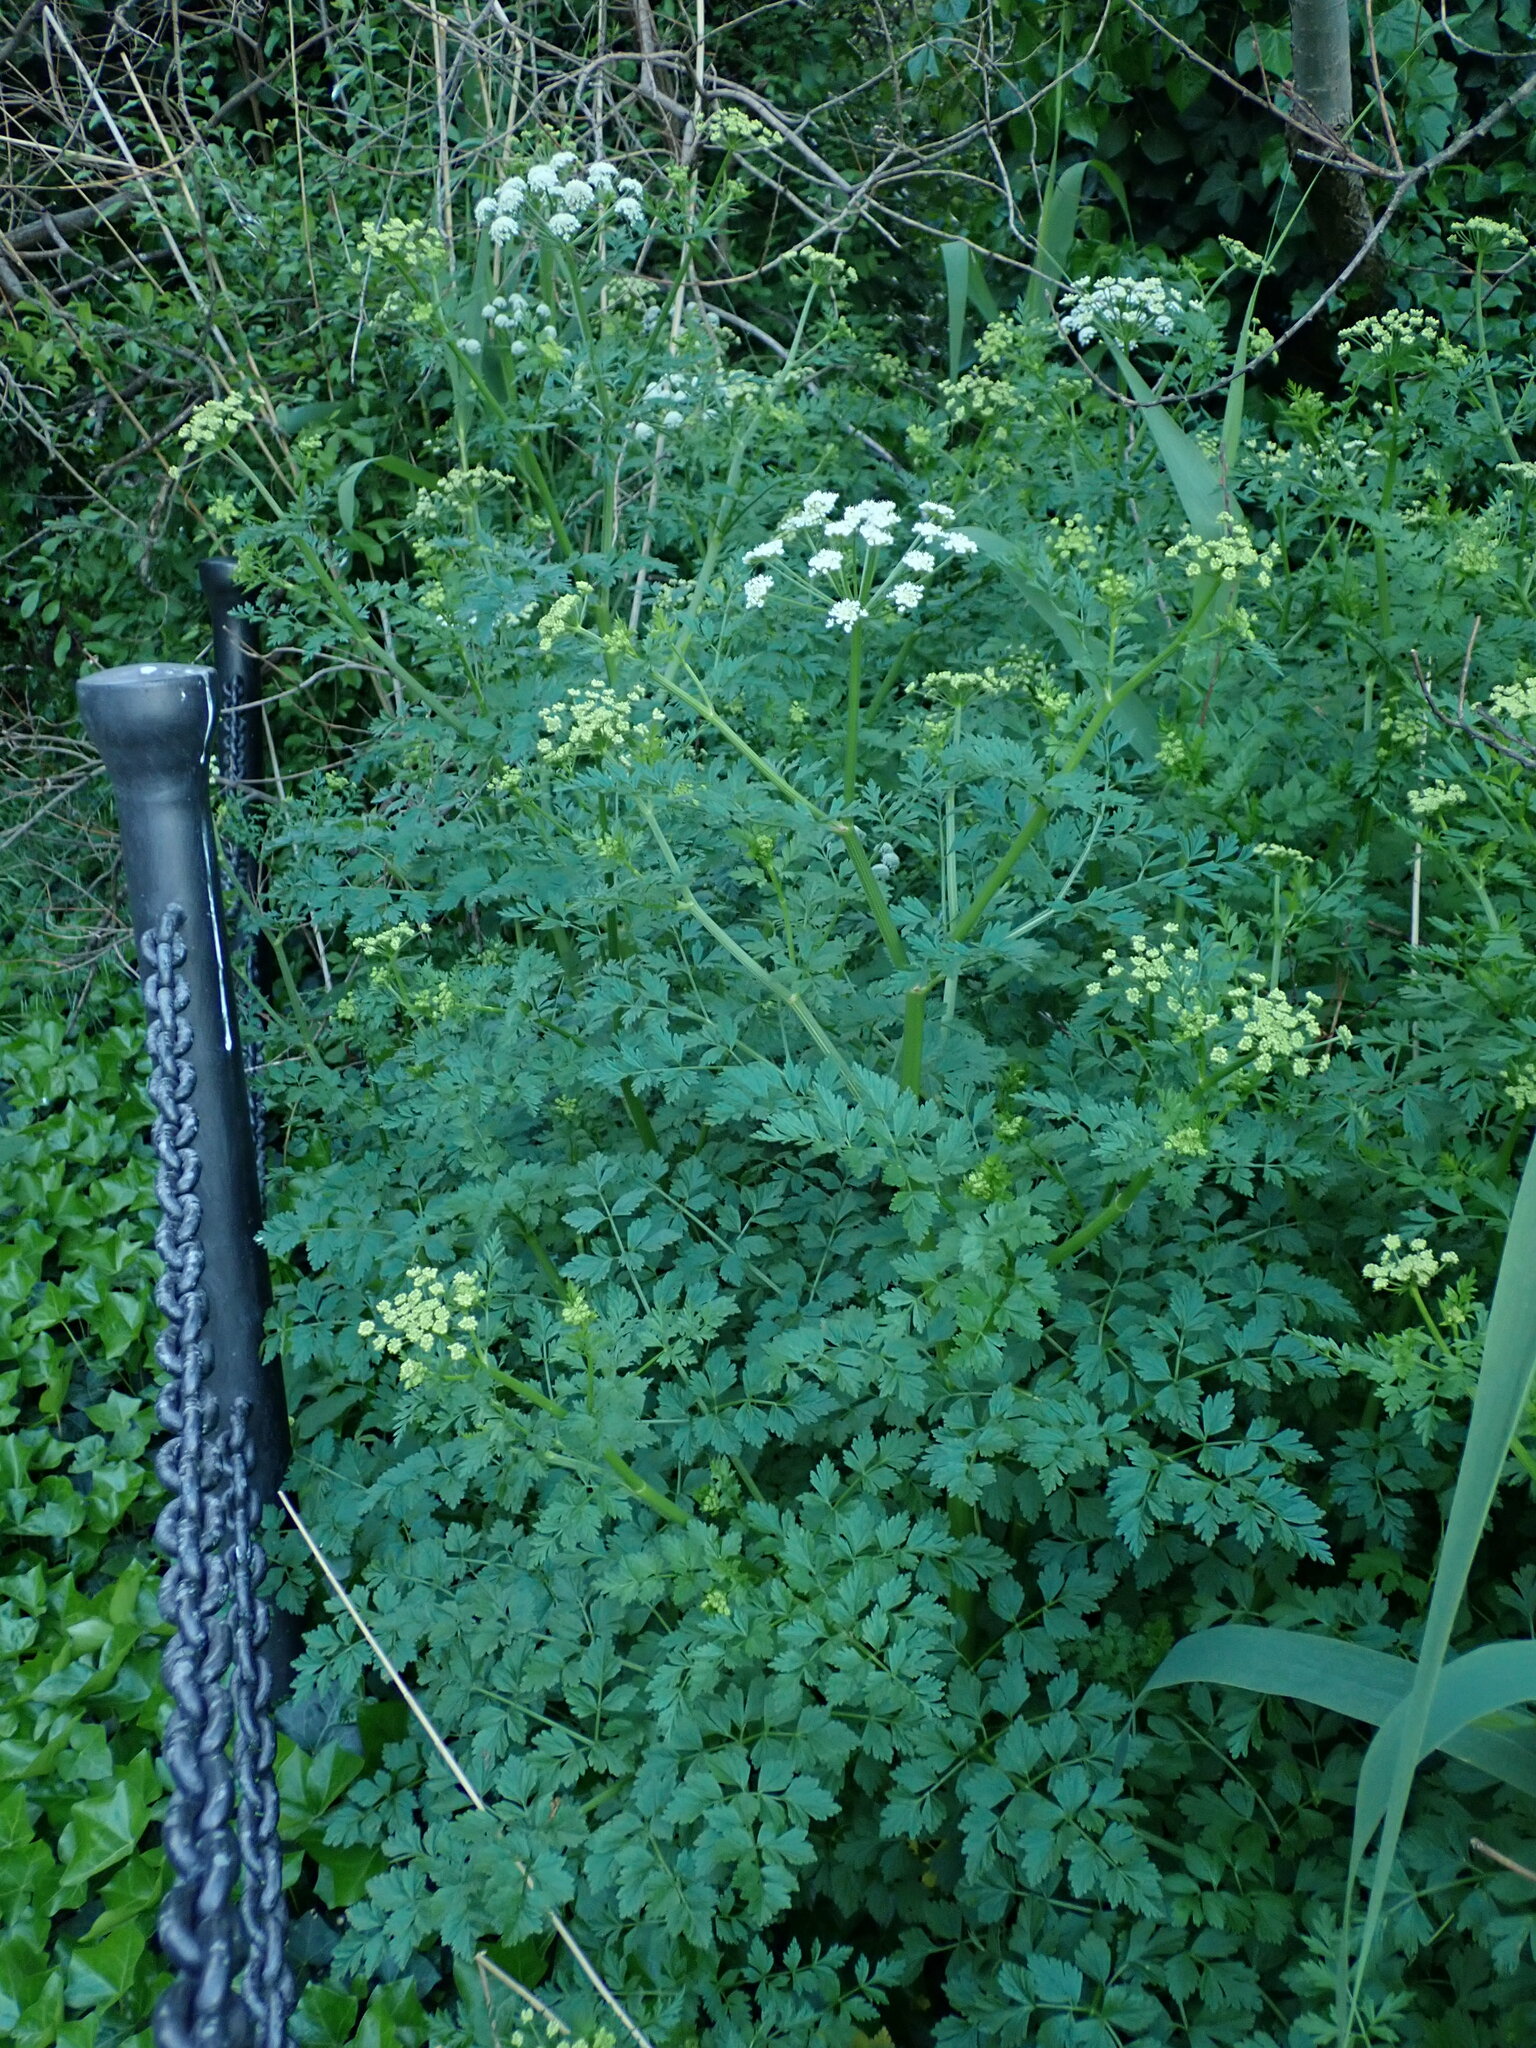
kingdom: Plantae
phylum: Tracheophyta
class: Magnoliopsida
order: Apiales
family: Apiaceae
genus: Oenanthe
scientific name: Oenanthe crocata
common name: Hemlock water-dropwort
